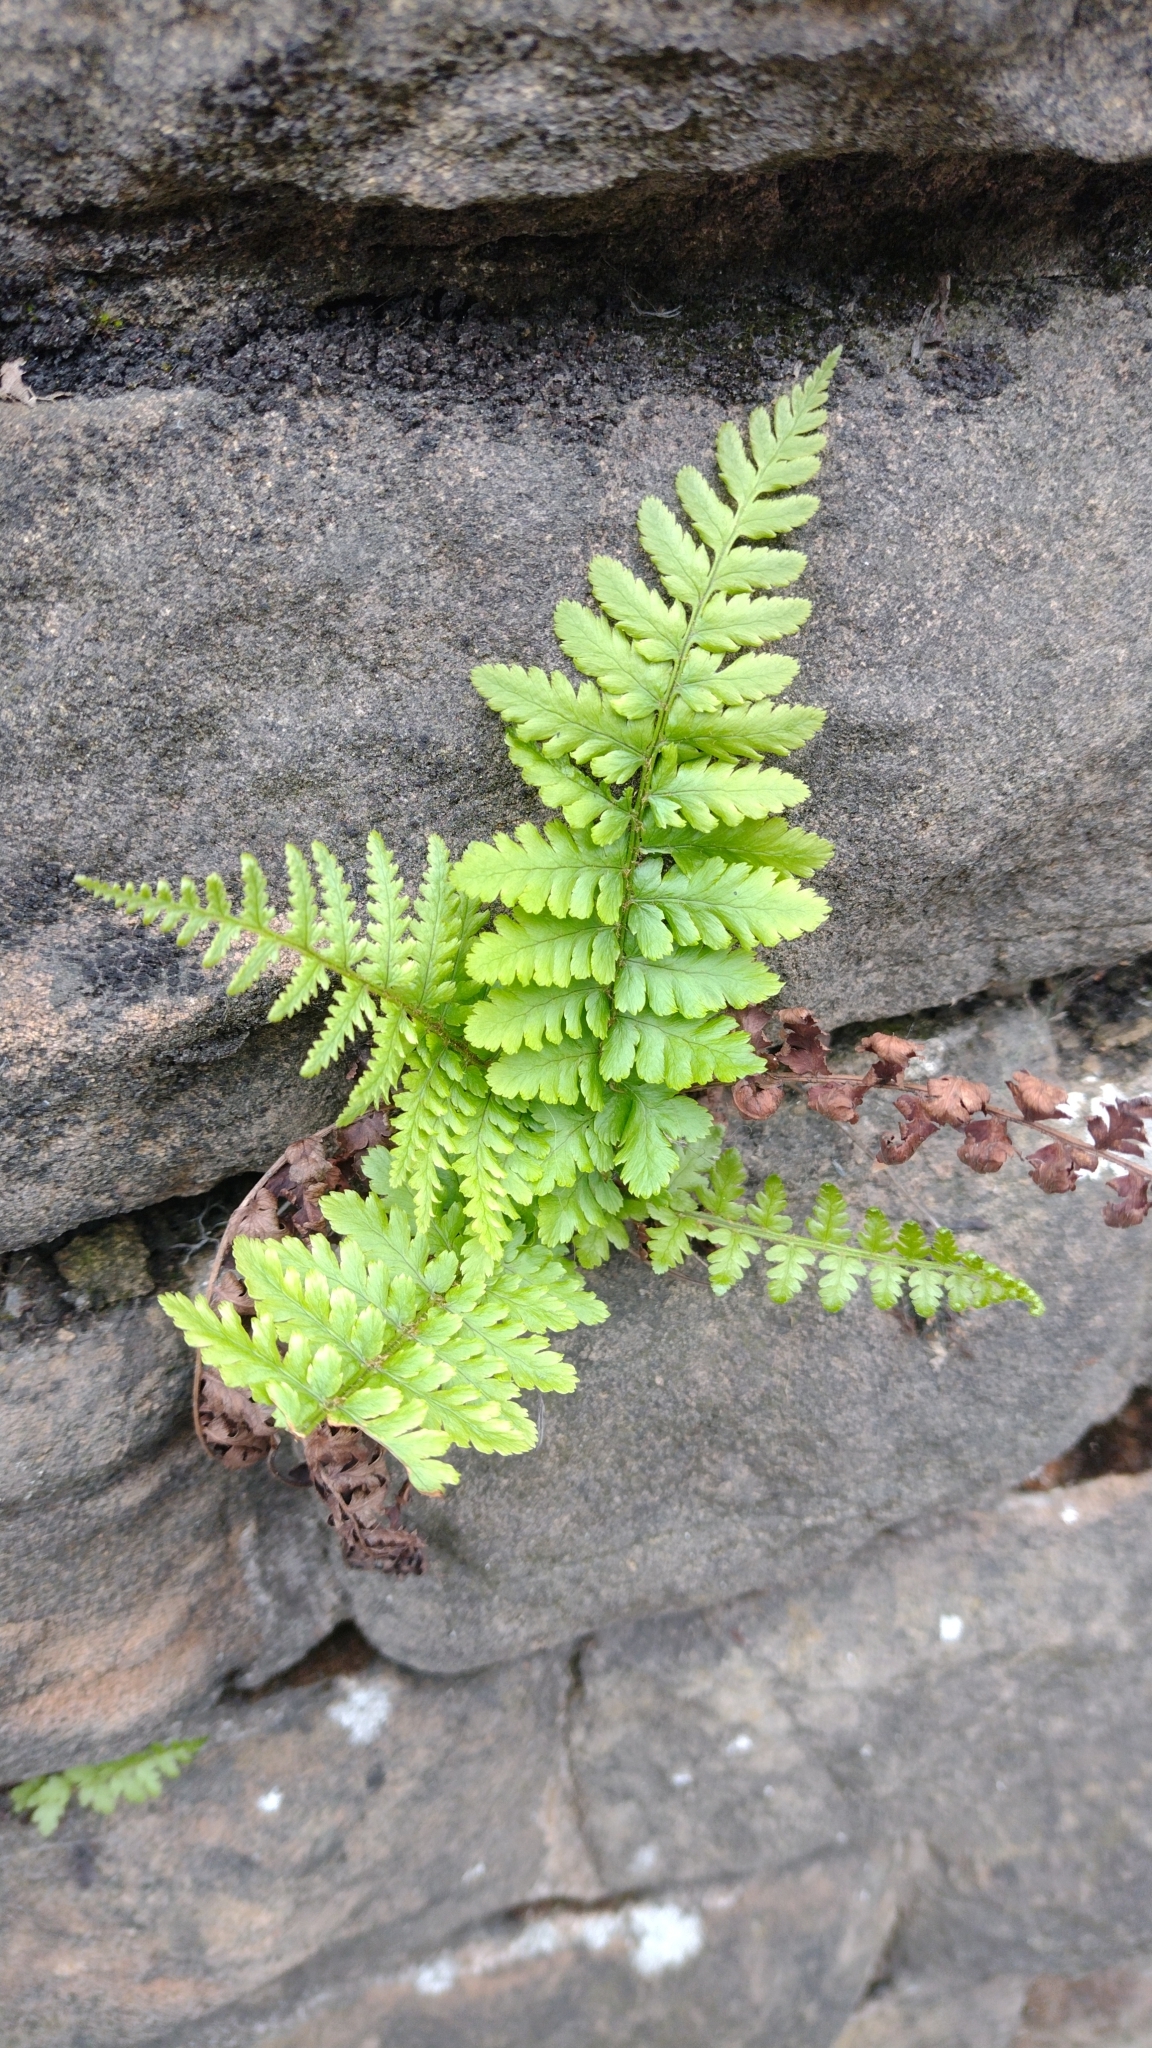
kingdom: Plantae
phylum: Tracheophyta
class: Polypodiopsida
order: Polypodiales
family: Dryopteridaceae
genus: Dryopteris
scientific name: Dryopteris filix-mas
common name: Male fern
